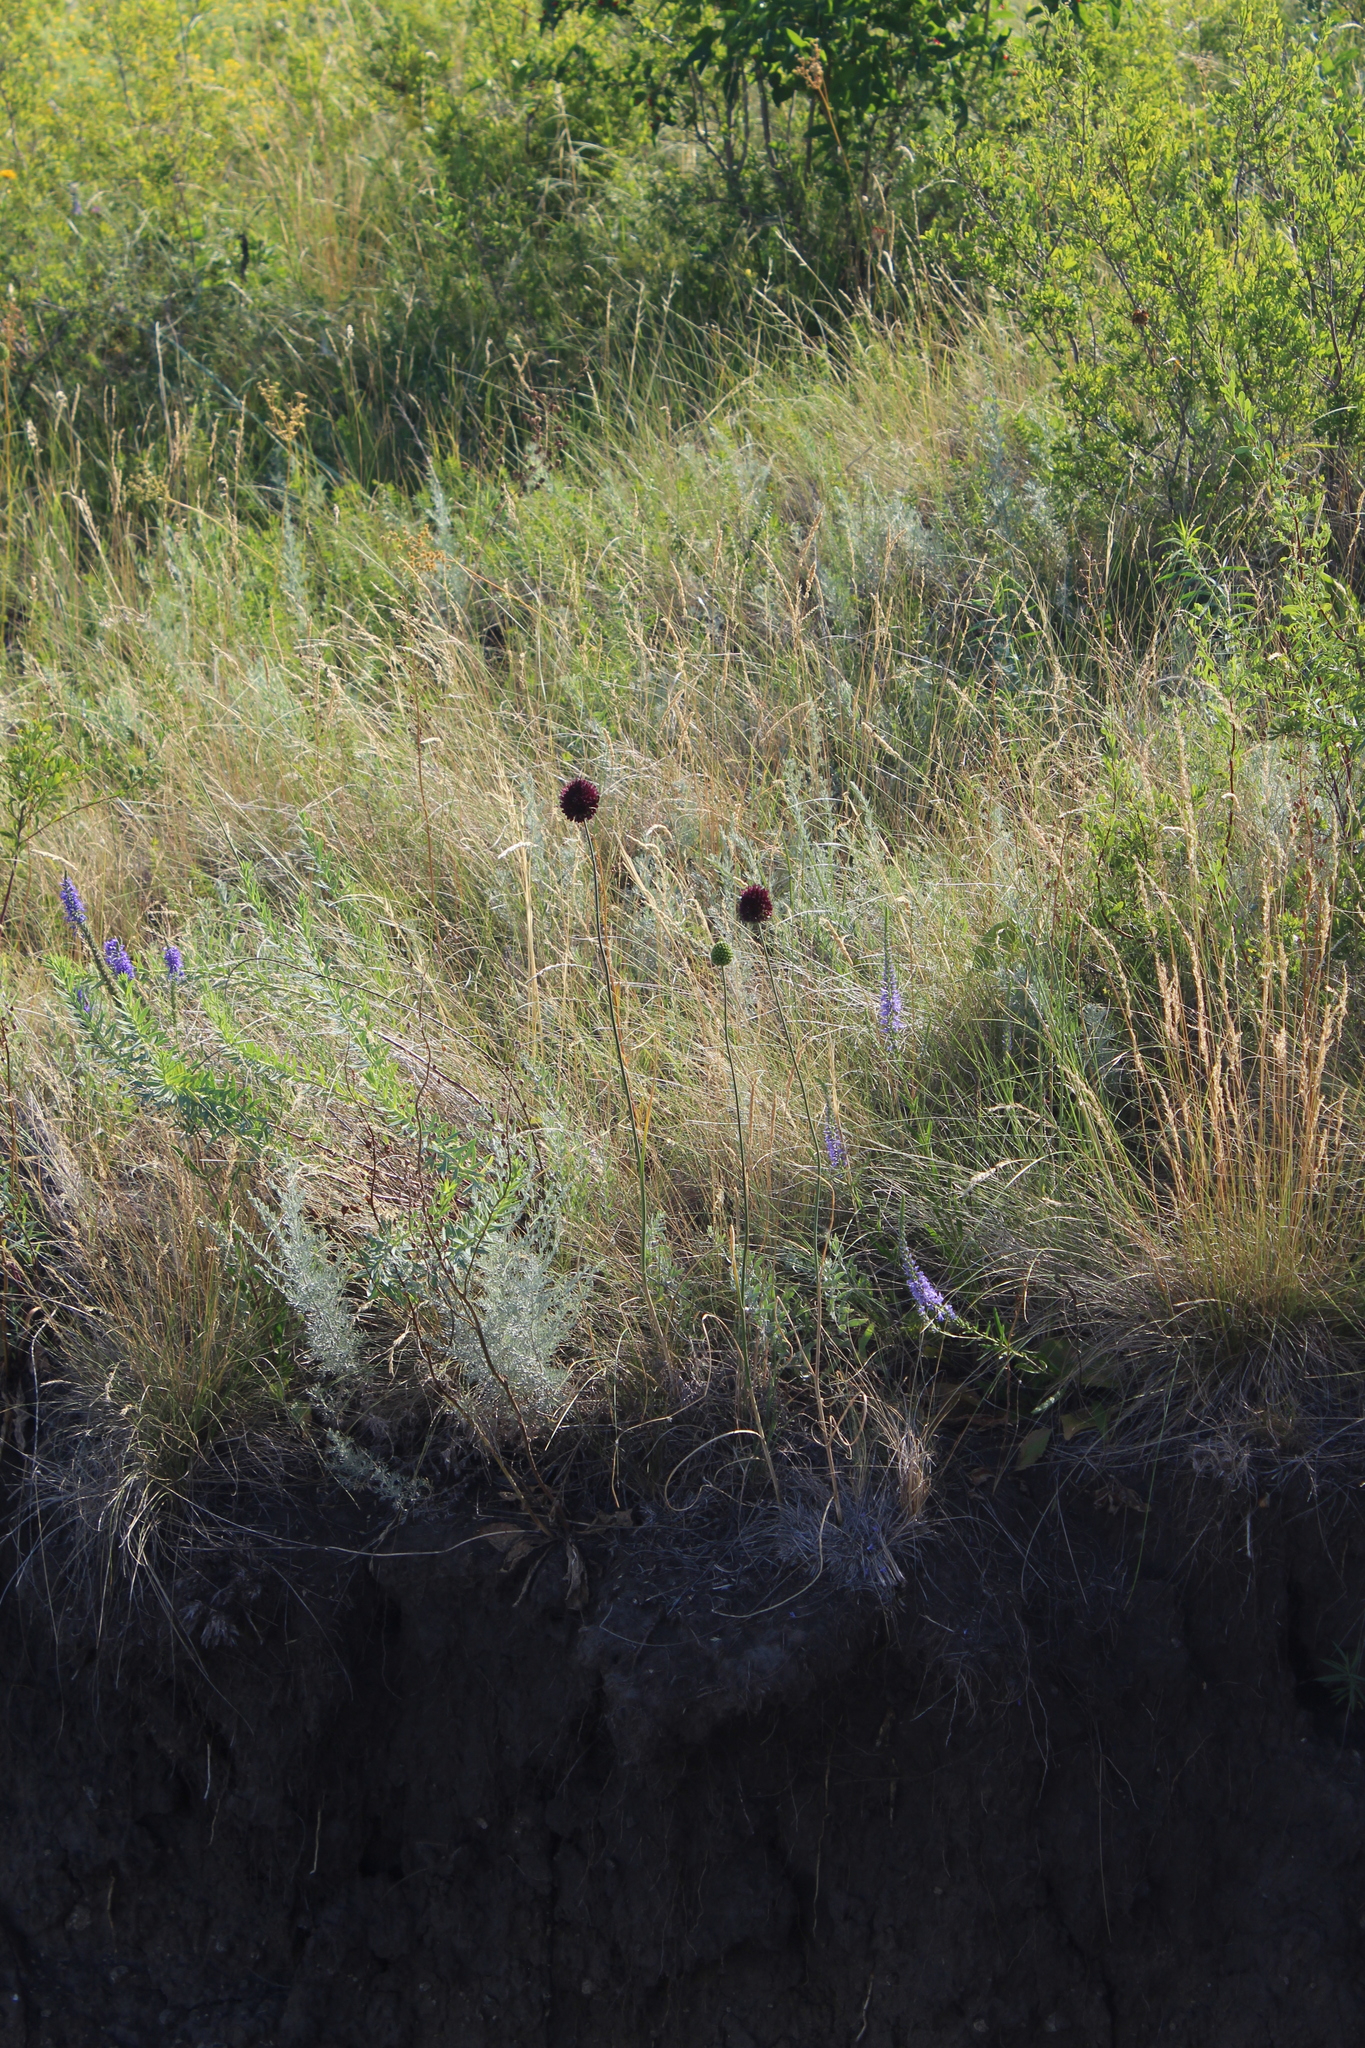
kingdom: Plantae
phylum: Tracheophyta
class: Liliopsida
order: Asparagales
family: Amaryllidaceae
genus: Allium
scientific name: Allium sphaerocephalon
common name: Round-headed leek
